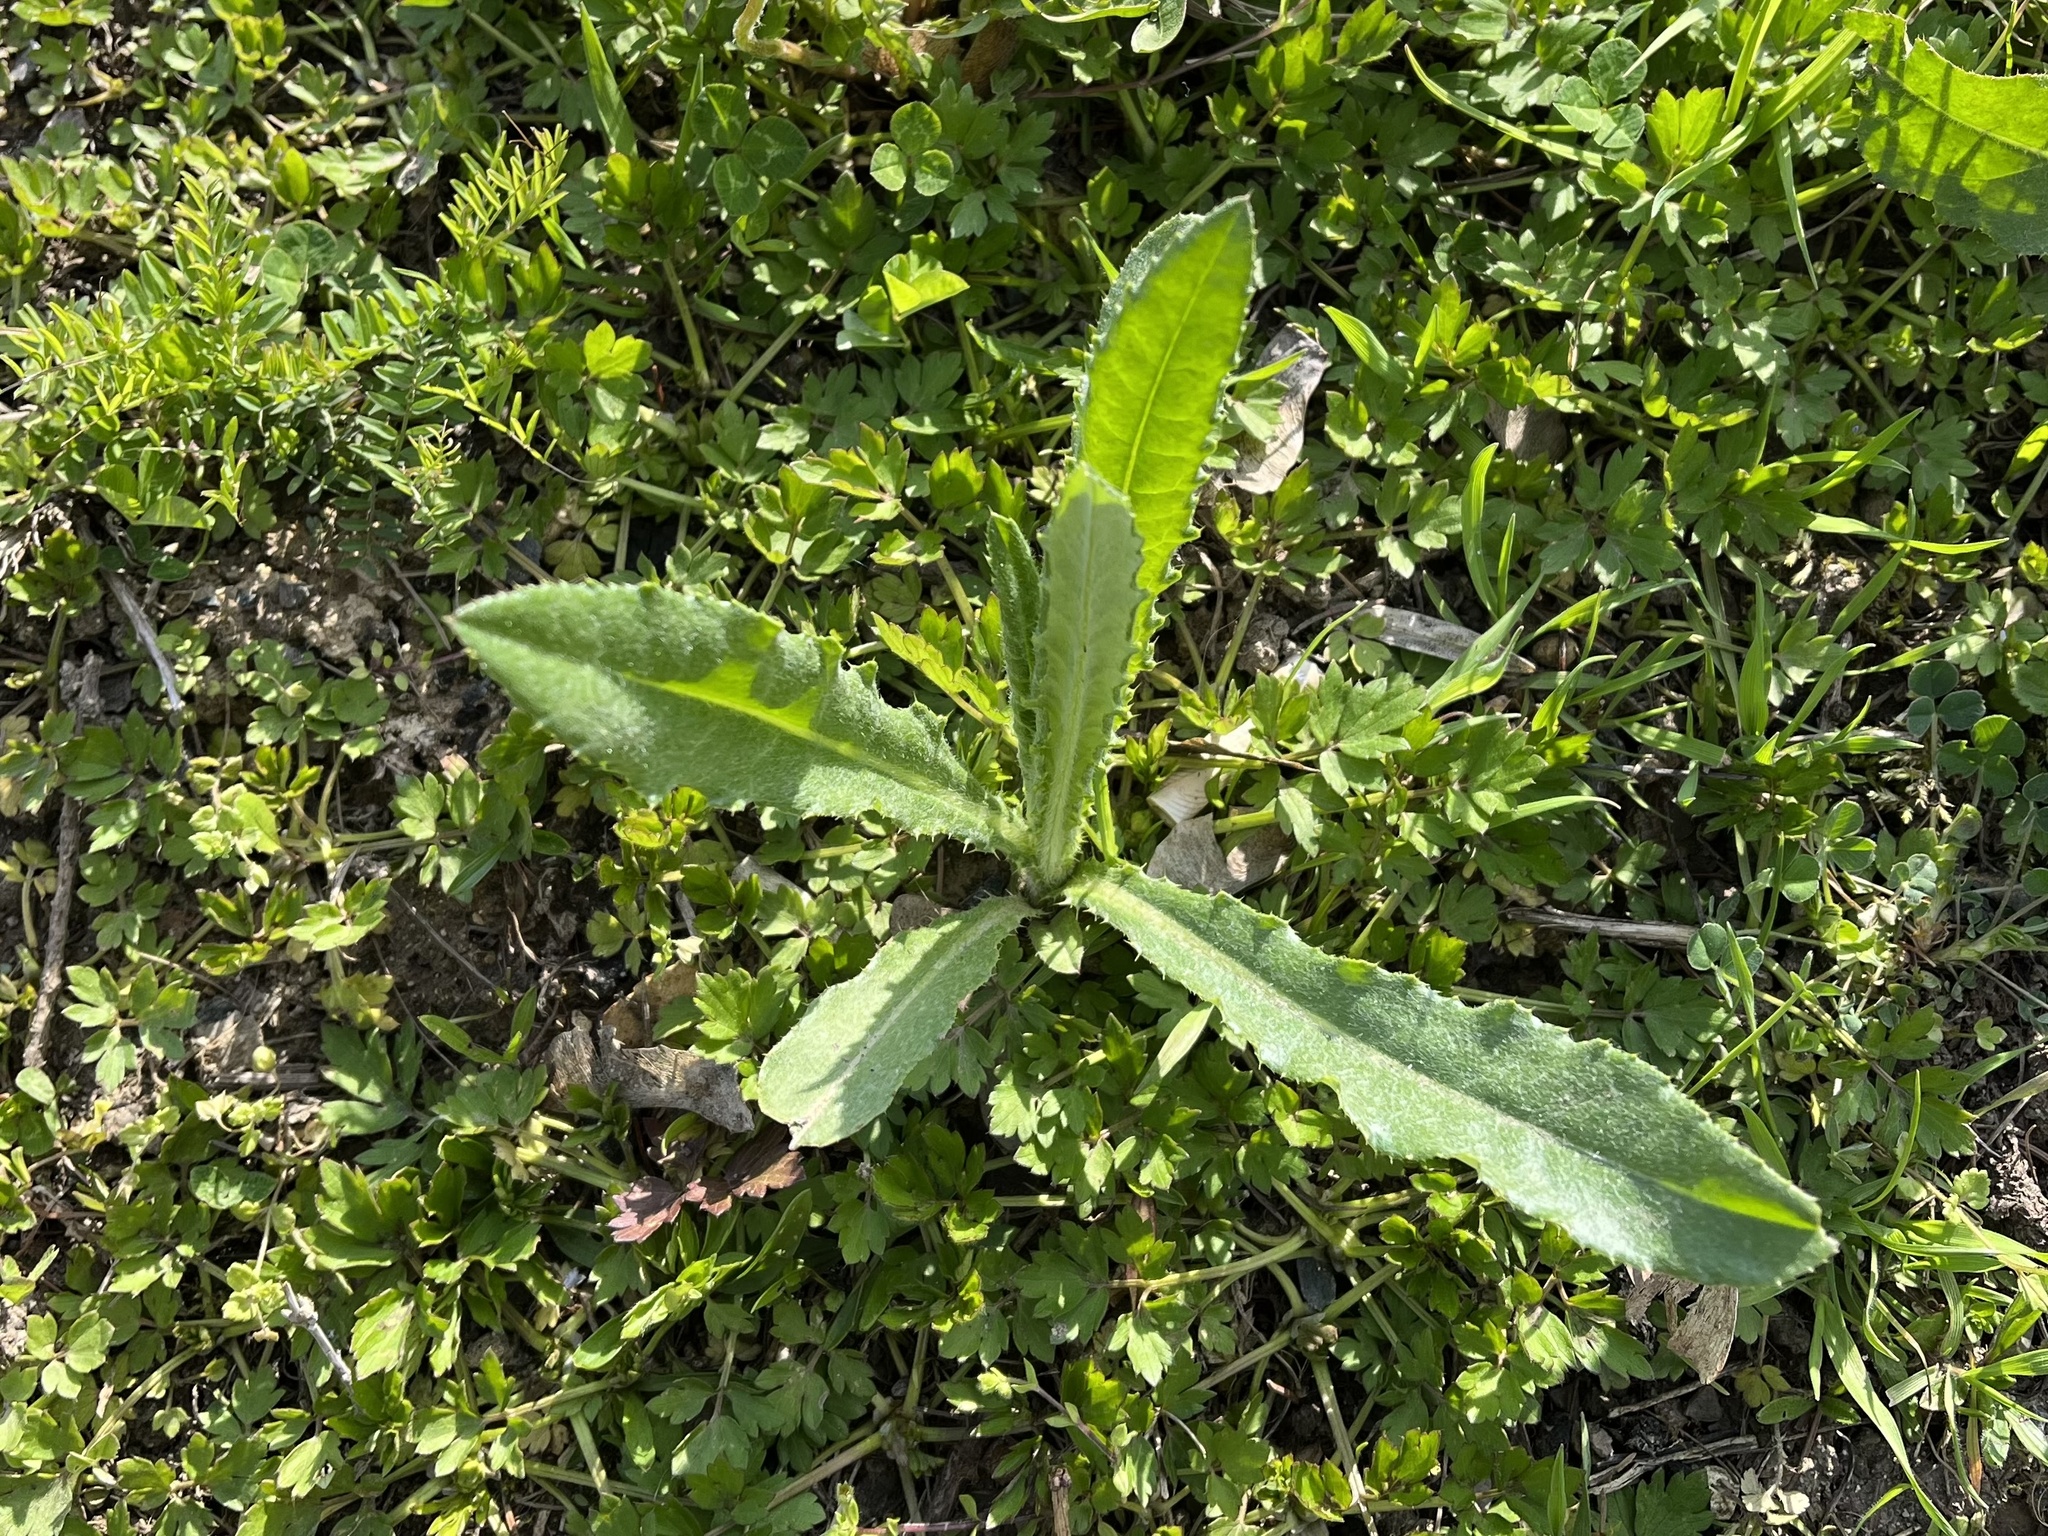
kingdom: Plantae
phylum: Tracheophyta
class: Magnoliopsida
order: Asterales
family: Asteraceae
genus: Cirsium
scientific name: Cirsium arvense
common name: Creeping thistle
